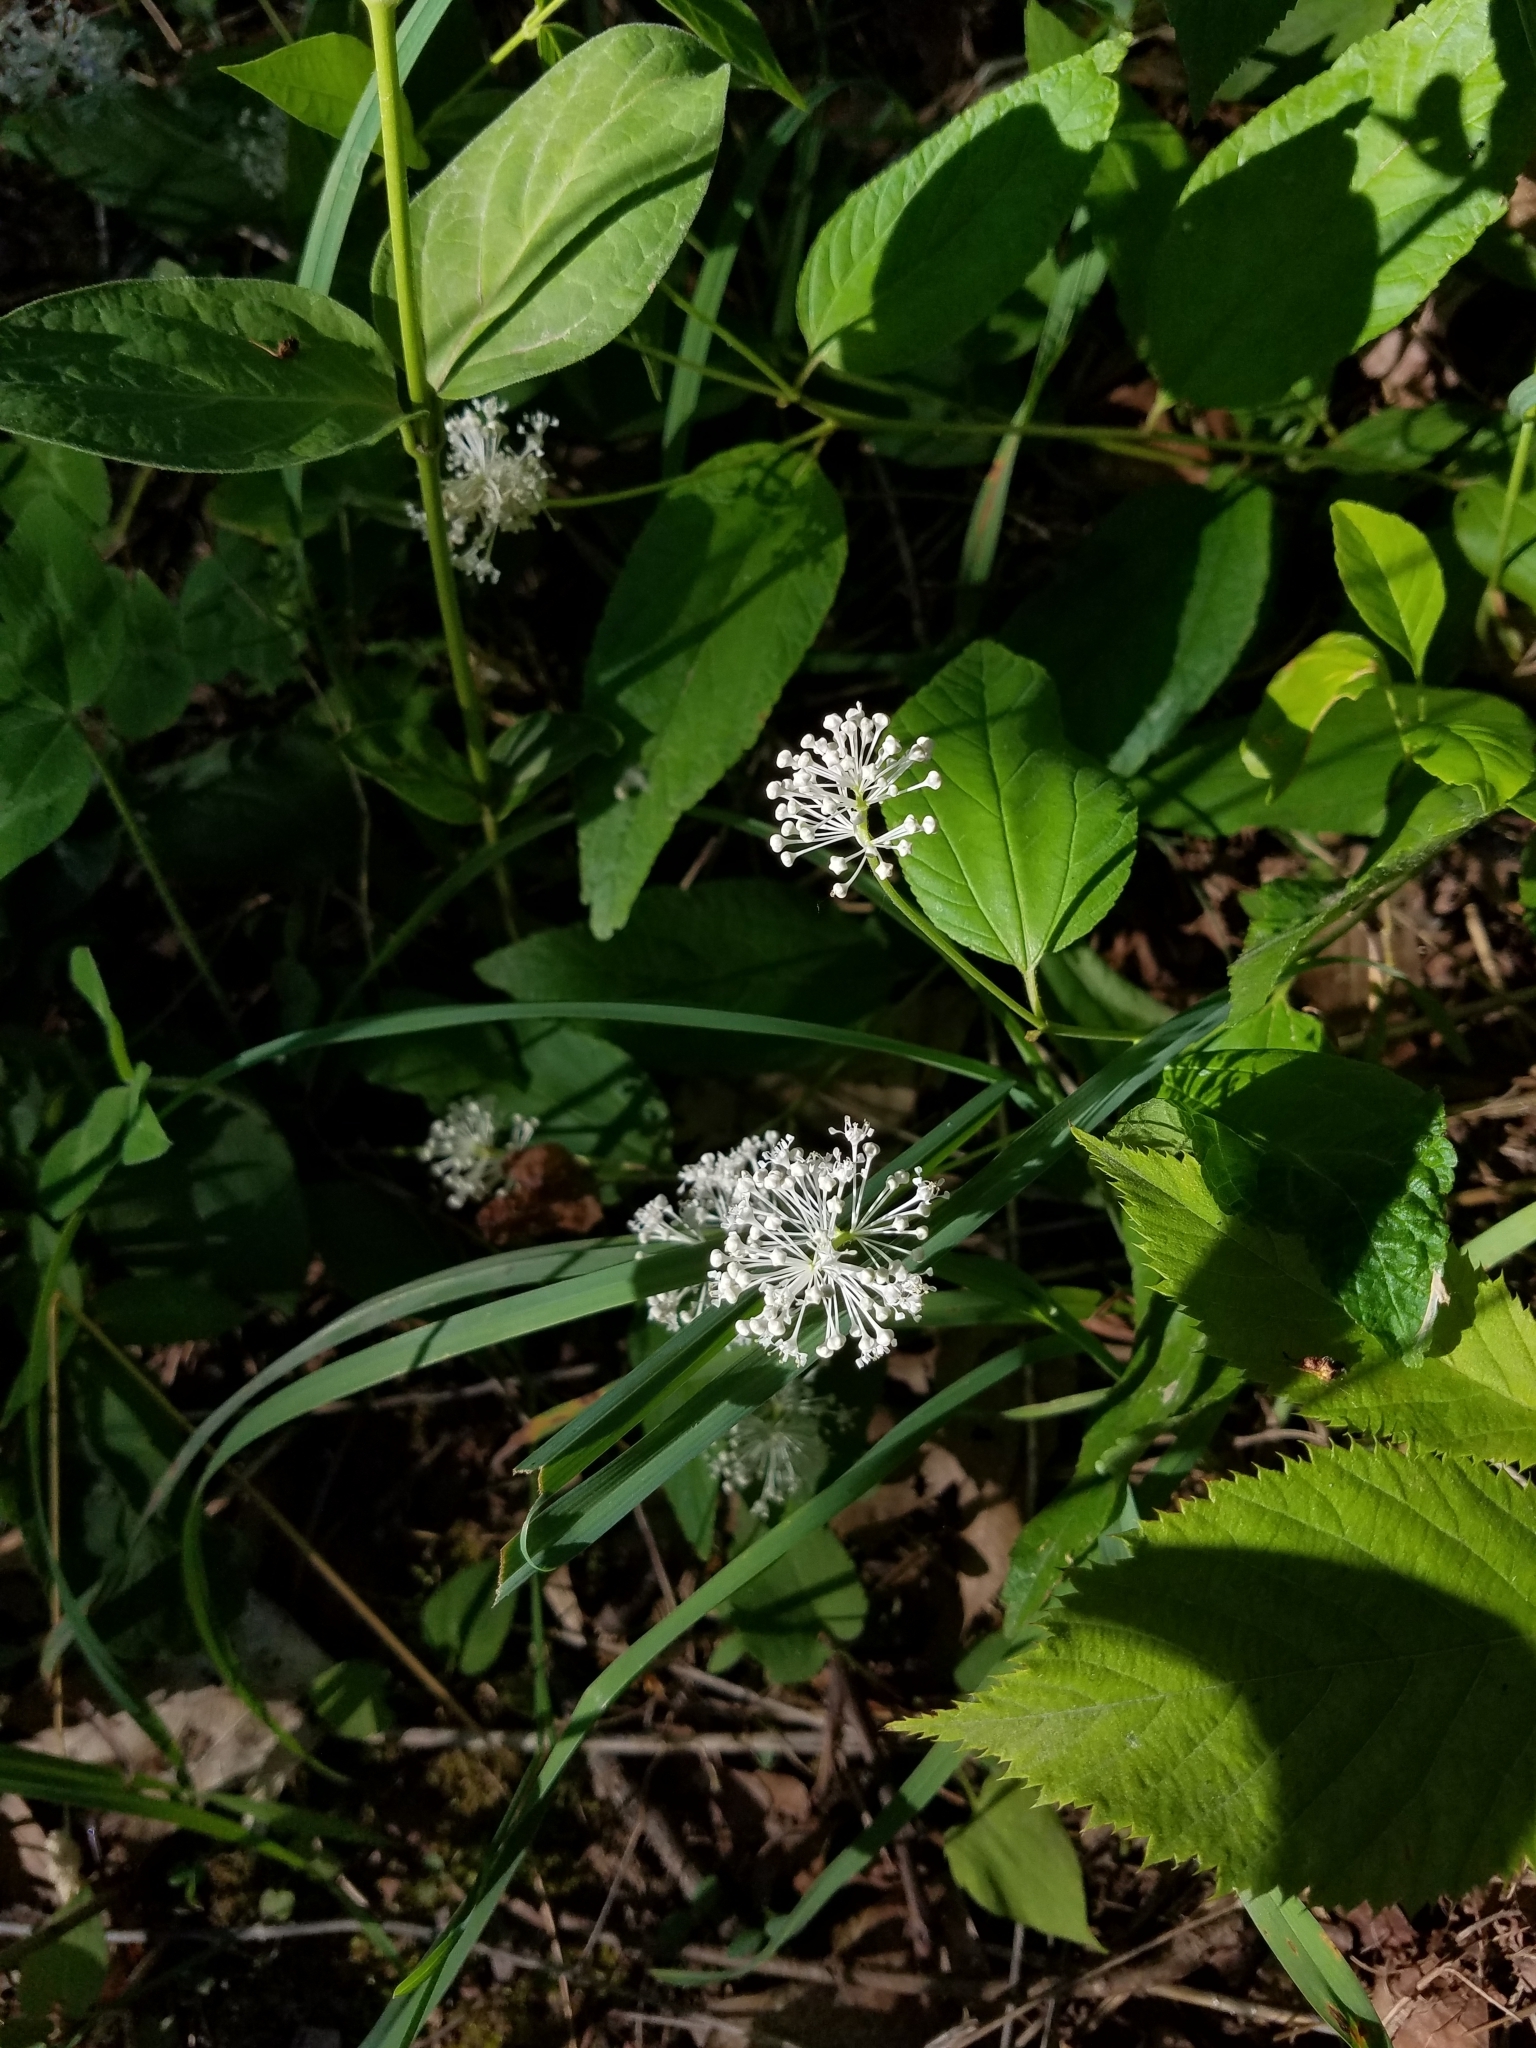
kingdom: Plantae
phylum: Tracheophyta
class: Magnoliopsida
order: Rosales
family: Rhamnaceae
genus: Ceanothus
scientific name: Ceanothus americanus
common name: Redroot
